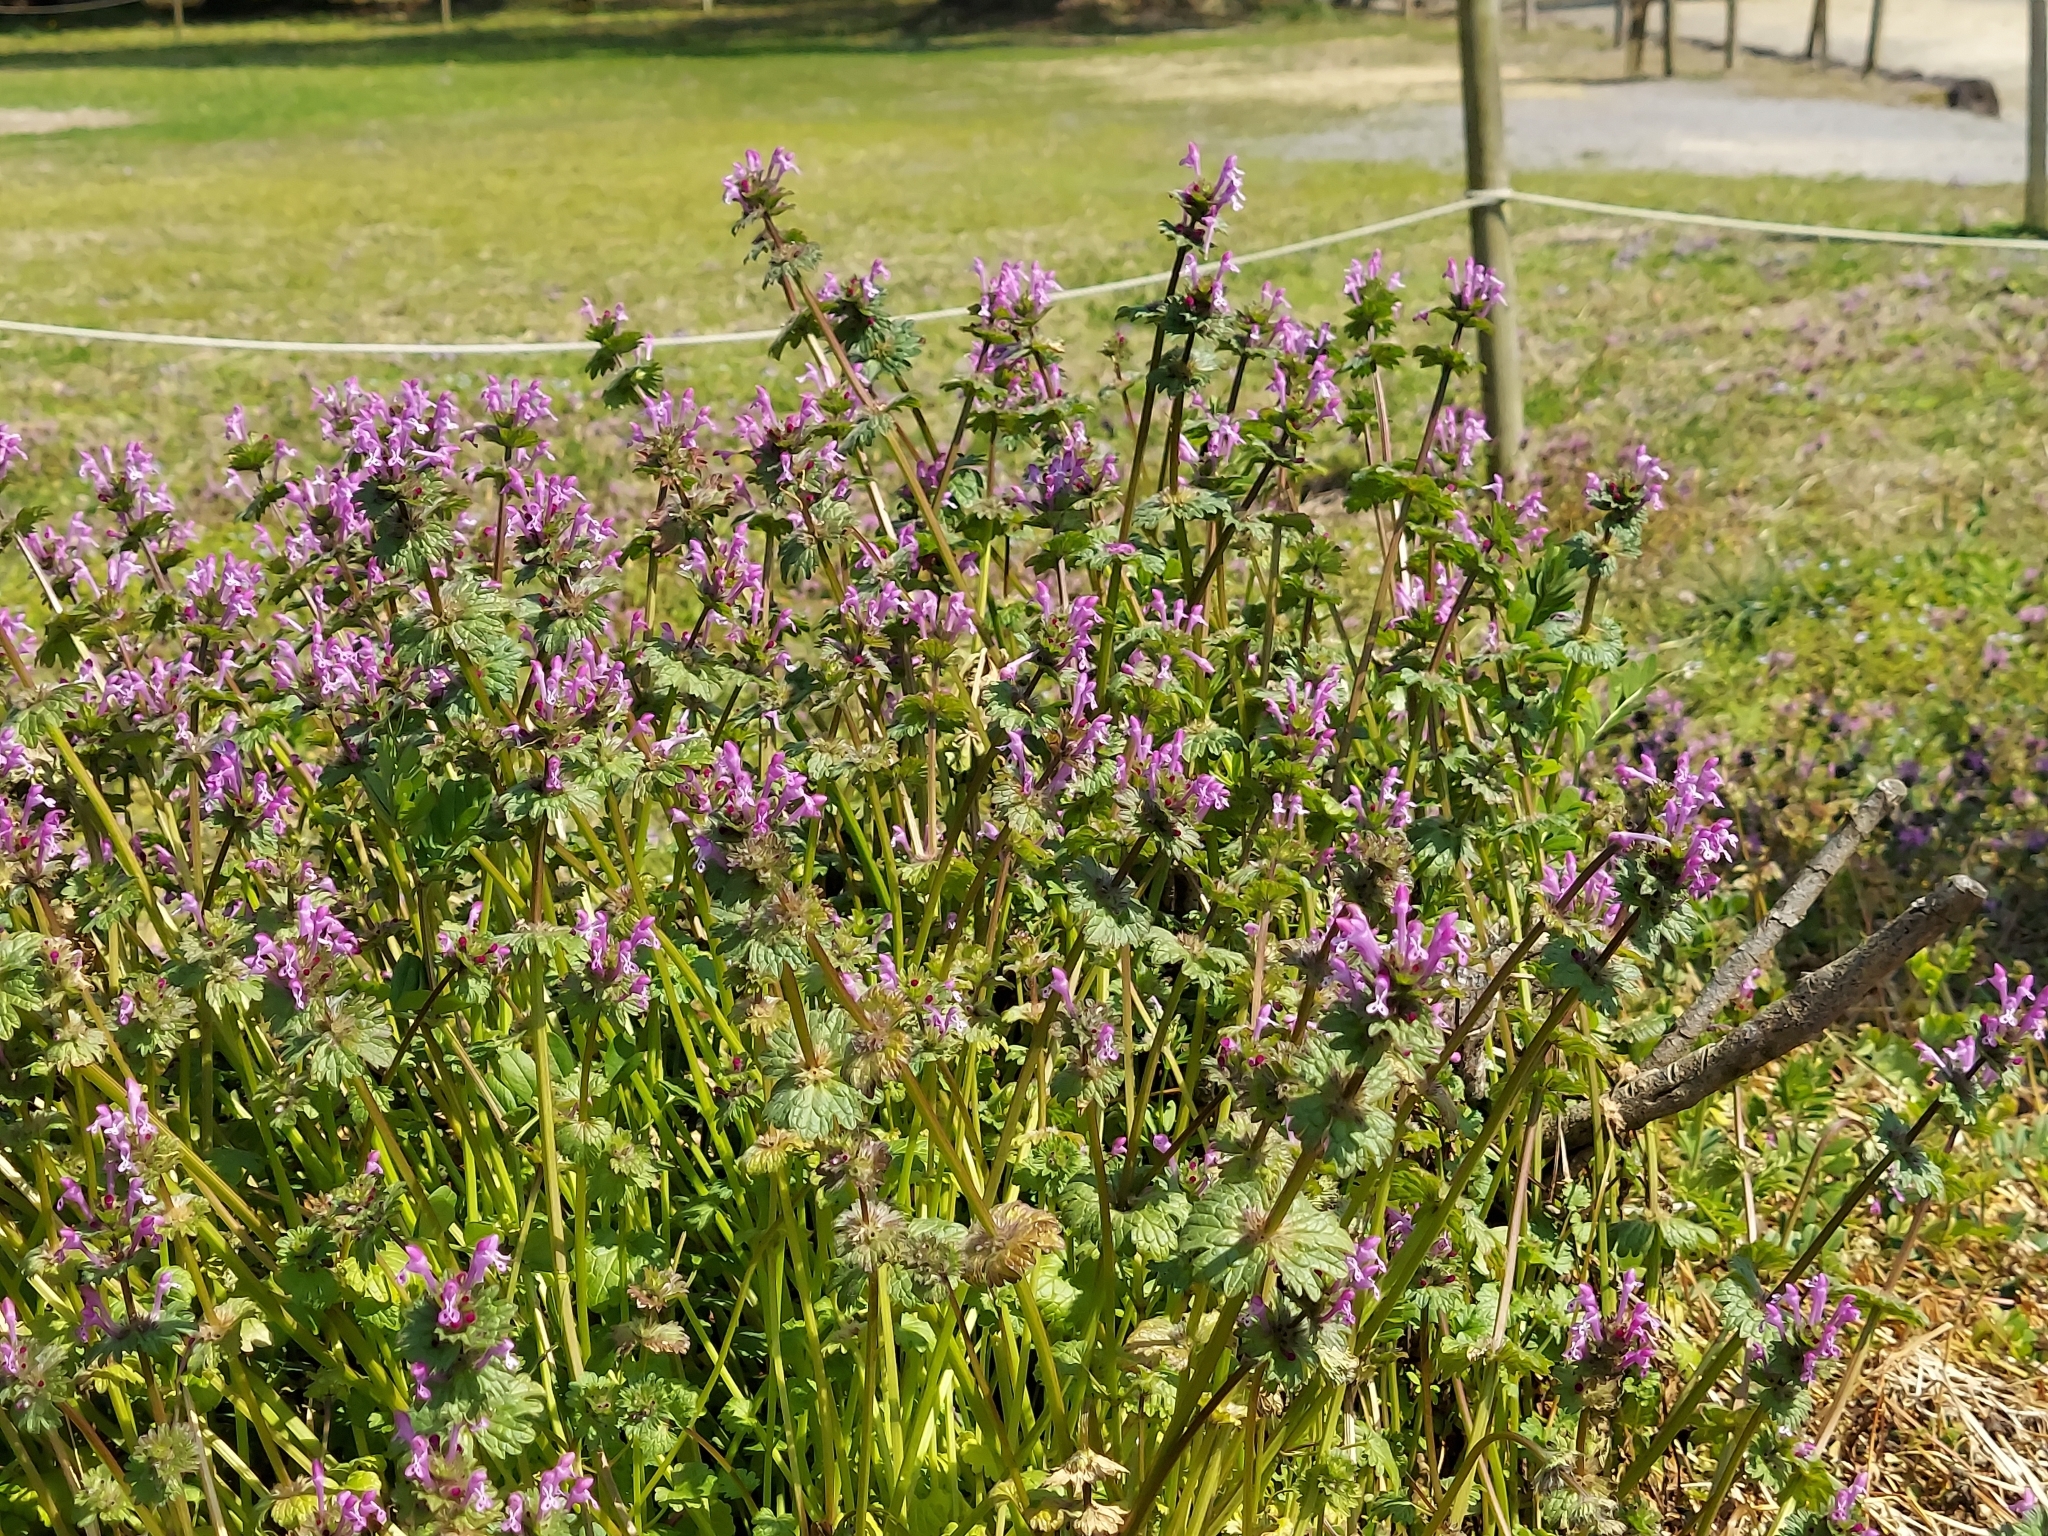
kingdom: Plantae
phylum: Tracheophyta
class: Magnoliopsida
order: Lamiales
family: Lamiaceae
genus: Lamium
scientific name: Lamium amplexicaule
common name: Henbit dead-nettle
